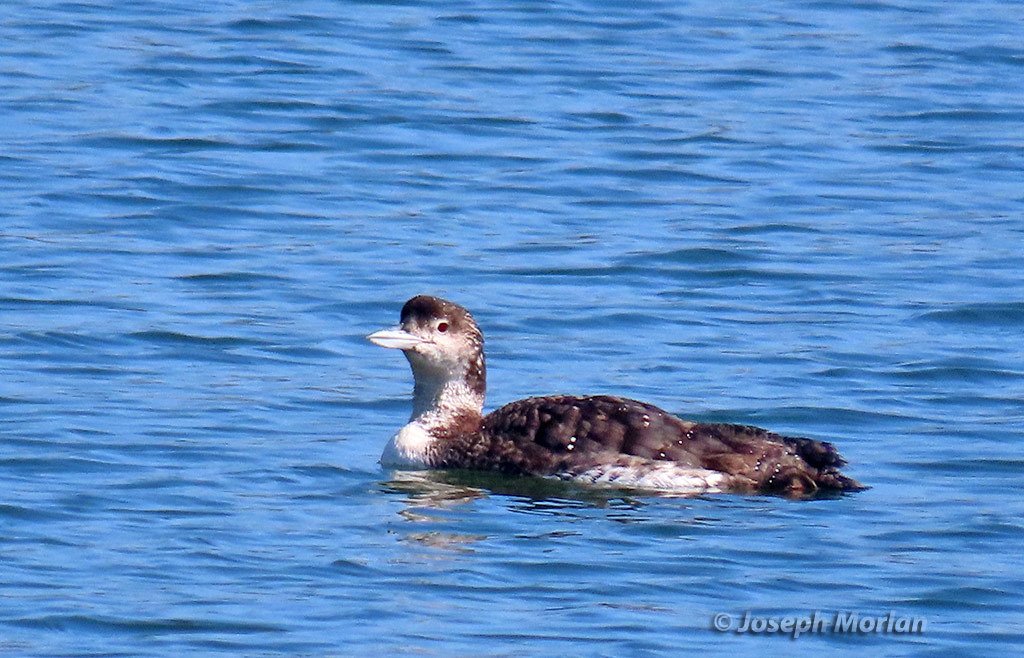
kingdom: Animalia
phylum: Chordata
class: Aves
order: Gaviiformes
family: Gaviidae
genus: Gavia
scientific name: Gavia immer
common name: Common loon
